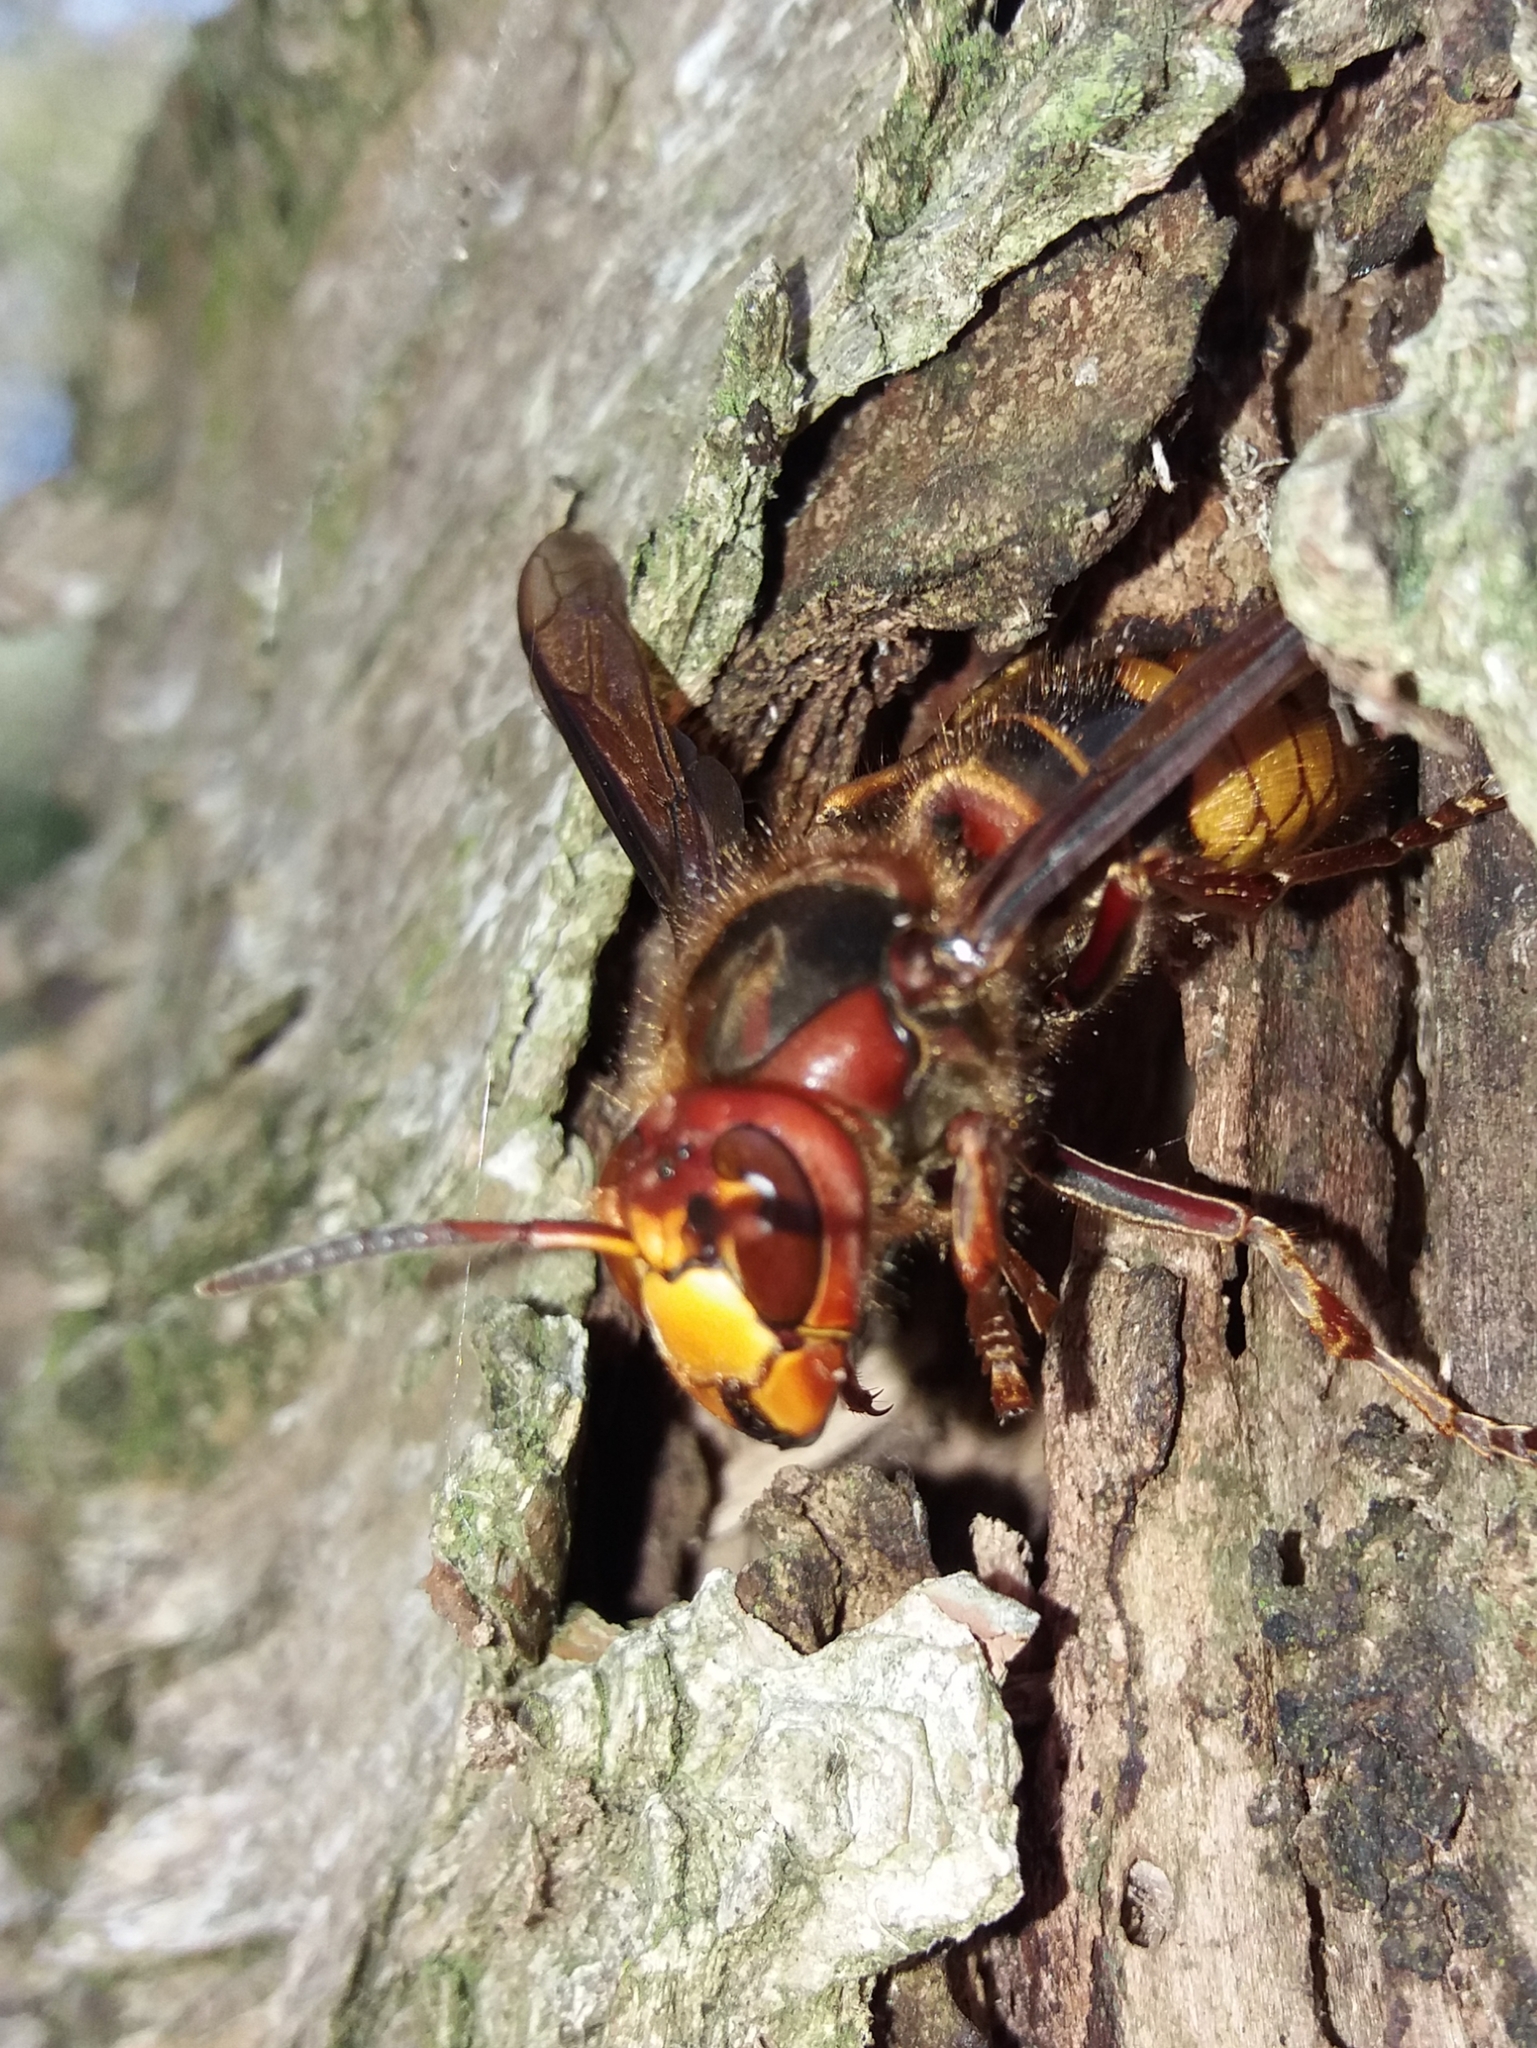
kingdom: Animalia
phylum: Arthropoda
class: Insecta
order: Hymenoptera
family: Vespidae
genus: Vespa
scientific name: Vespa crabro
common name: Hornet
